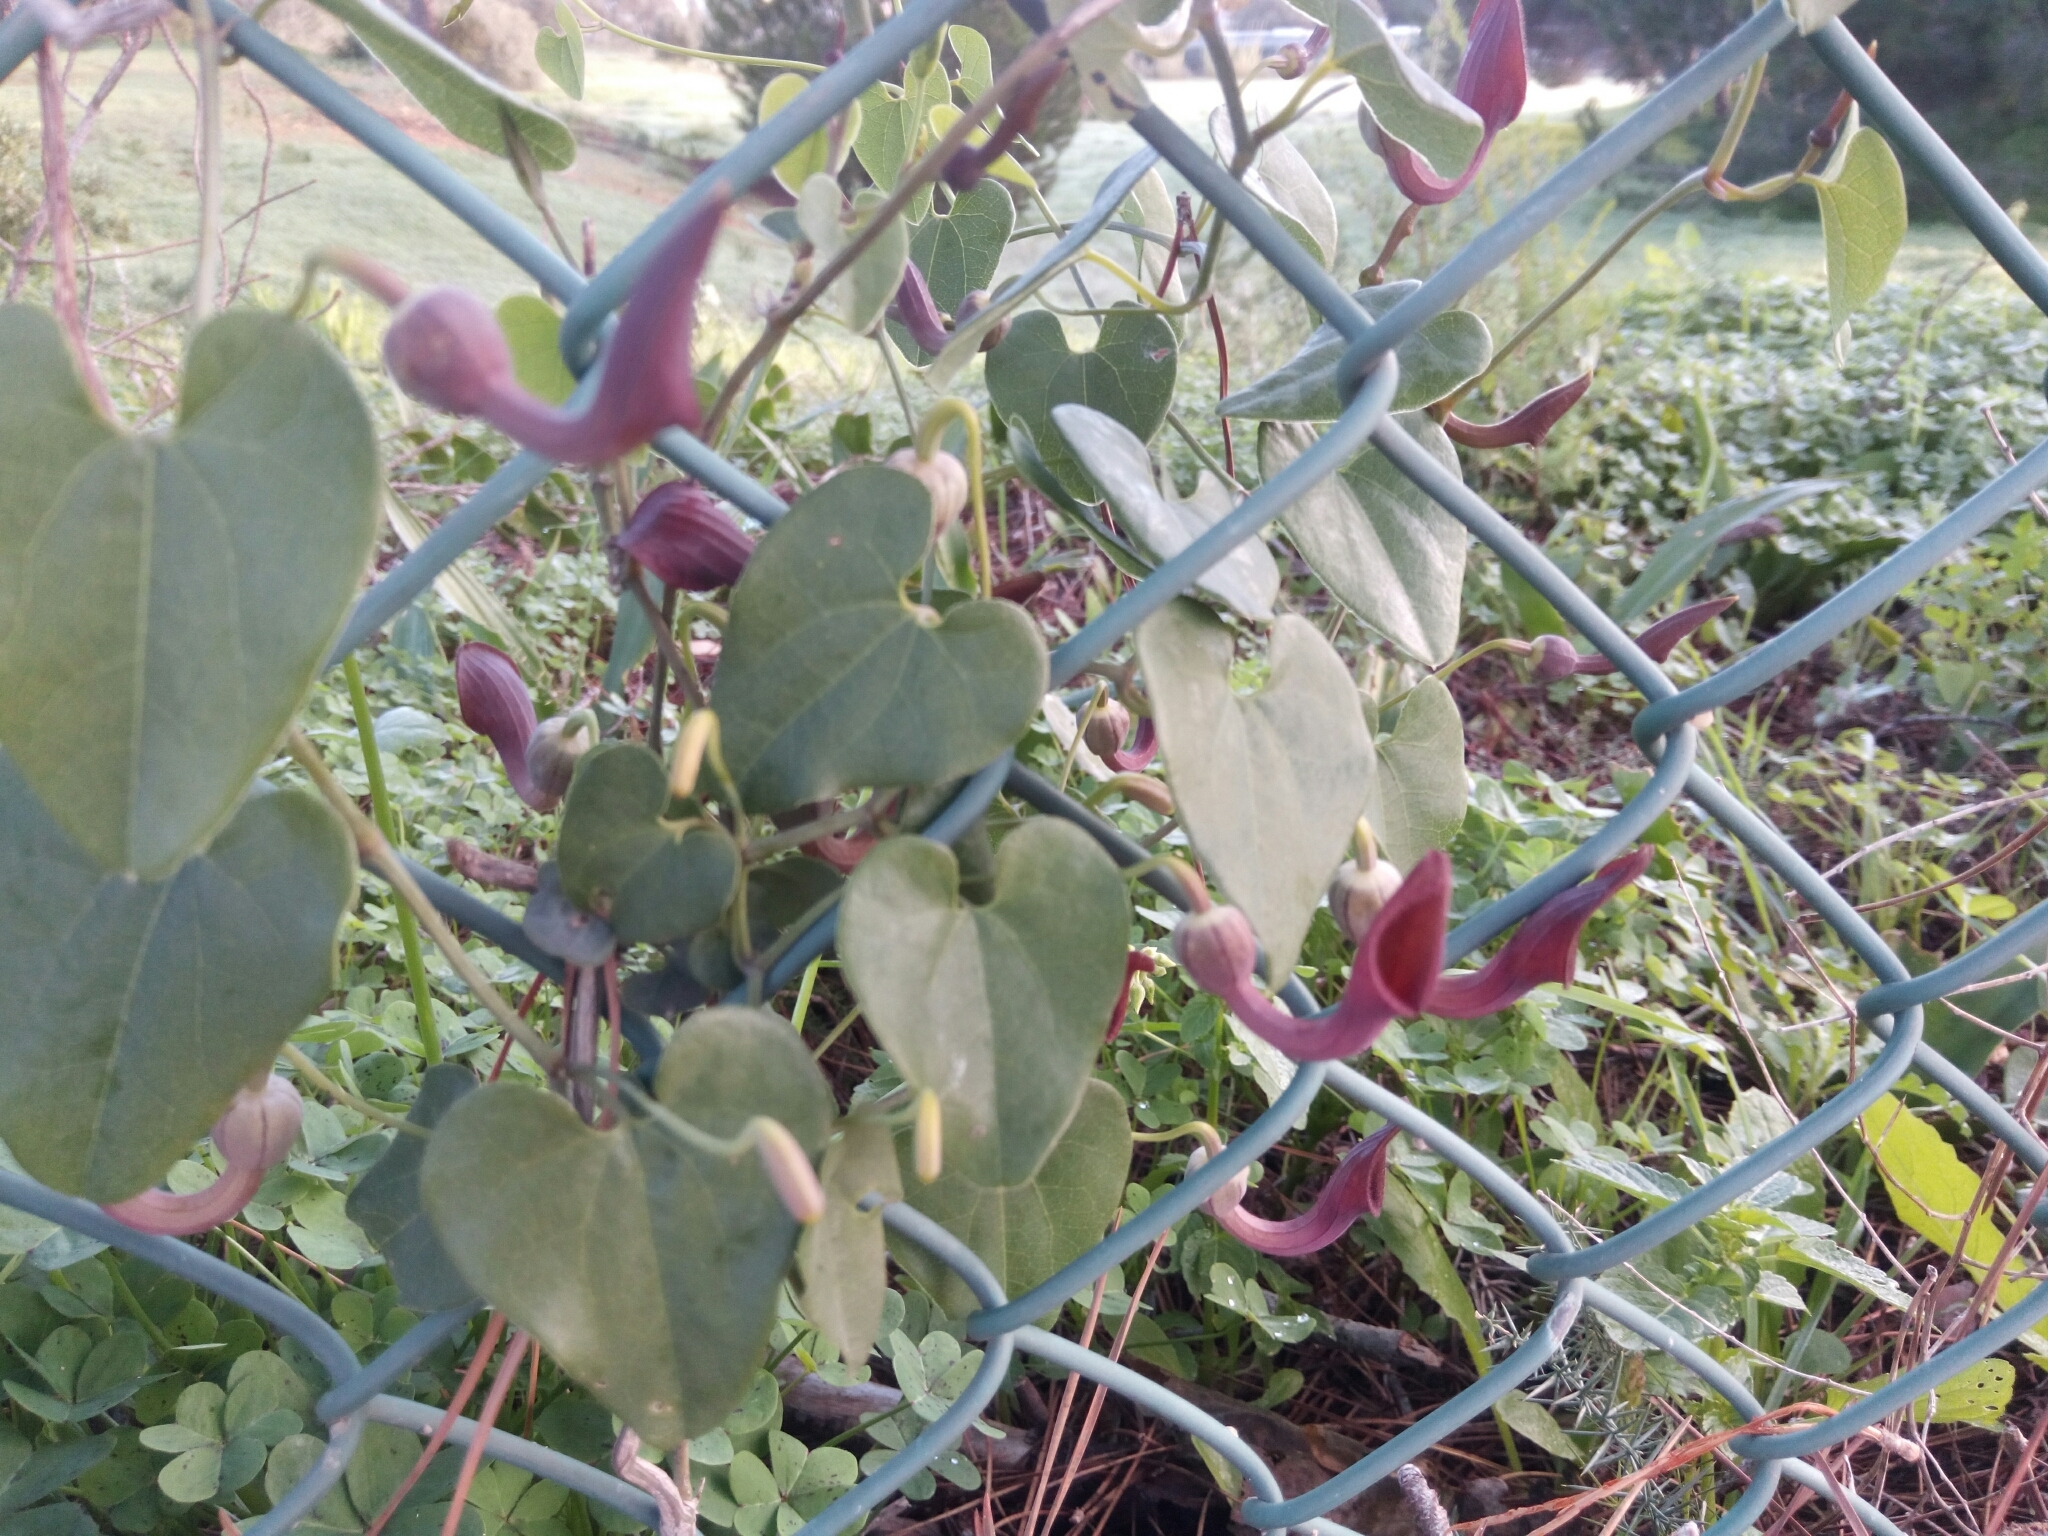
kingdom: Plantae
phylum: Tracheophyta
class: Magnoliopsida
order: Piperales
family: Aristolochiaceae
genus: Aristolochia
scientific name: Aristolochia baetica
